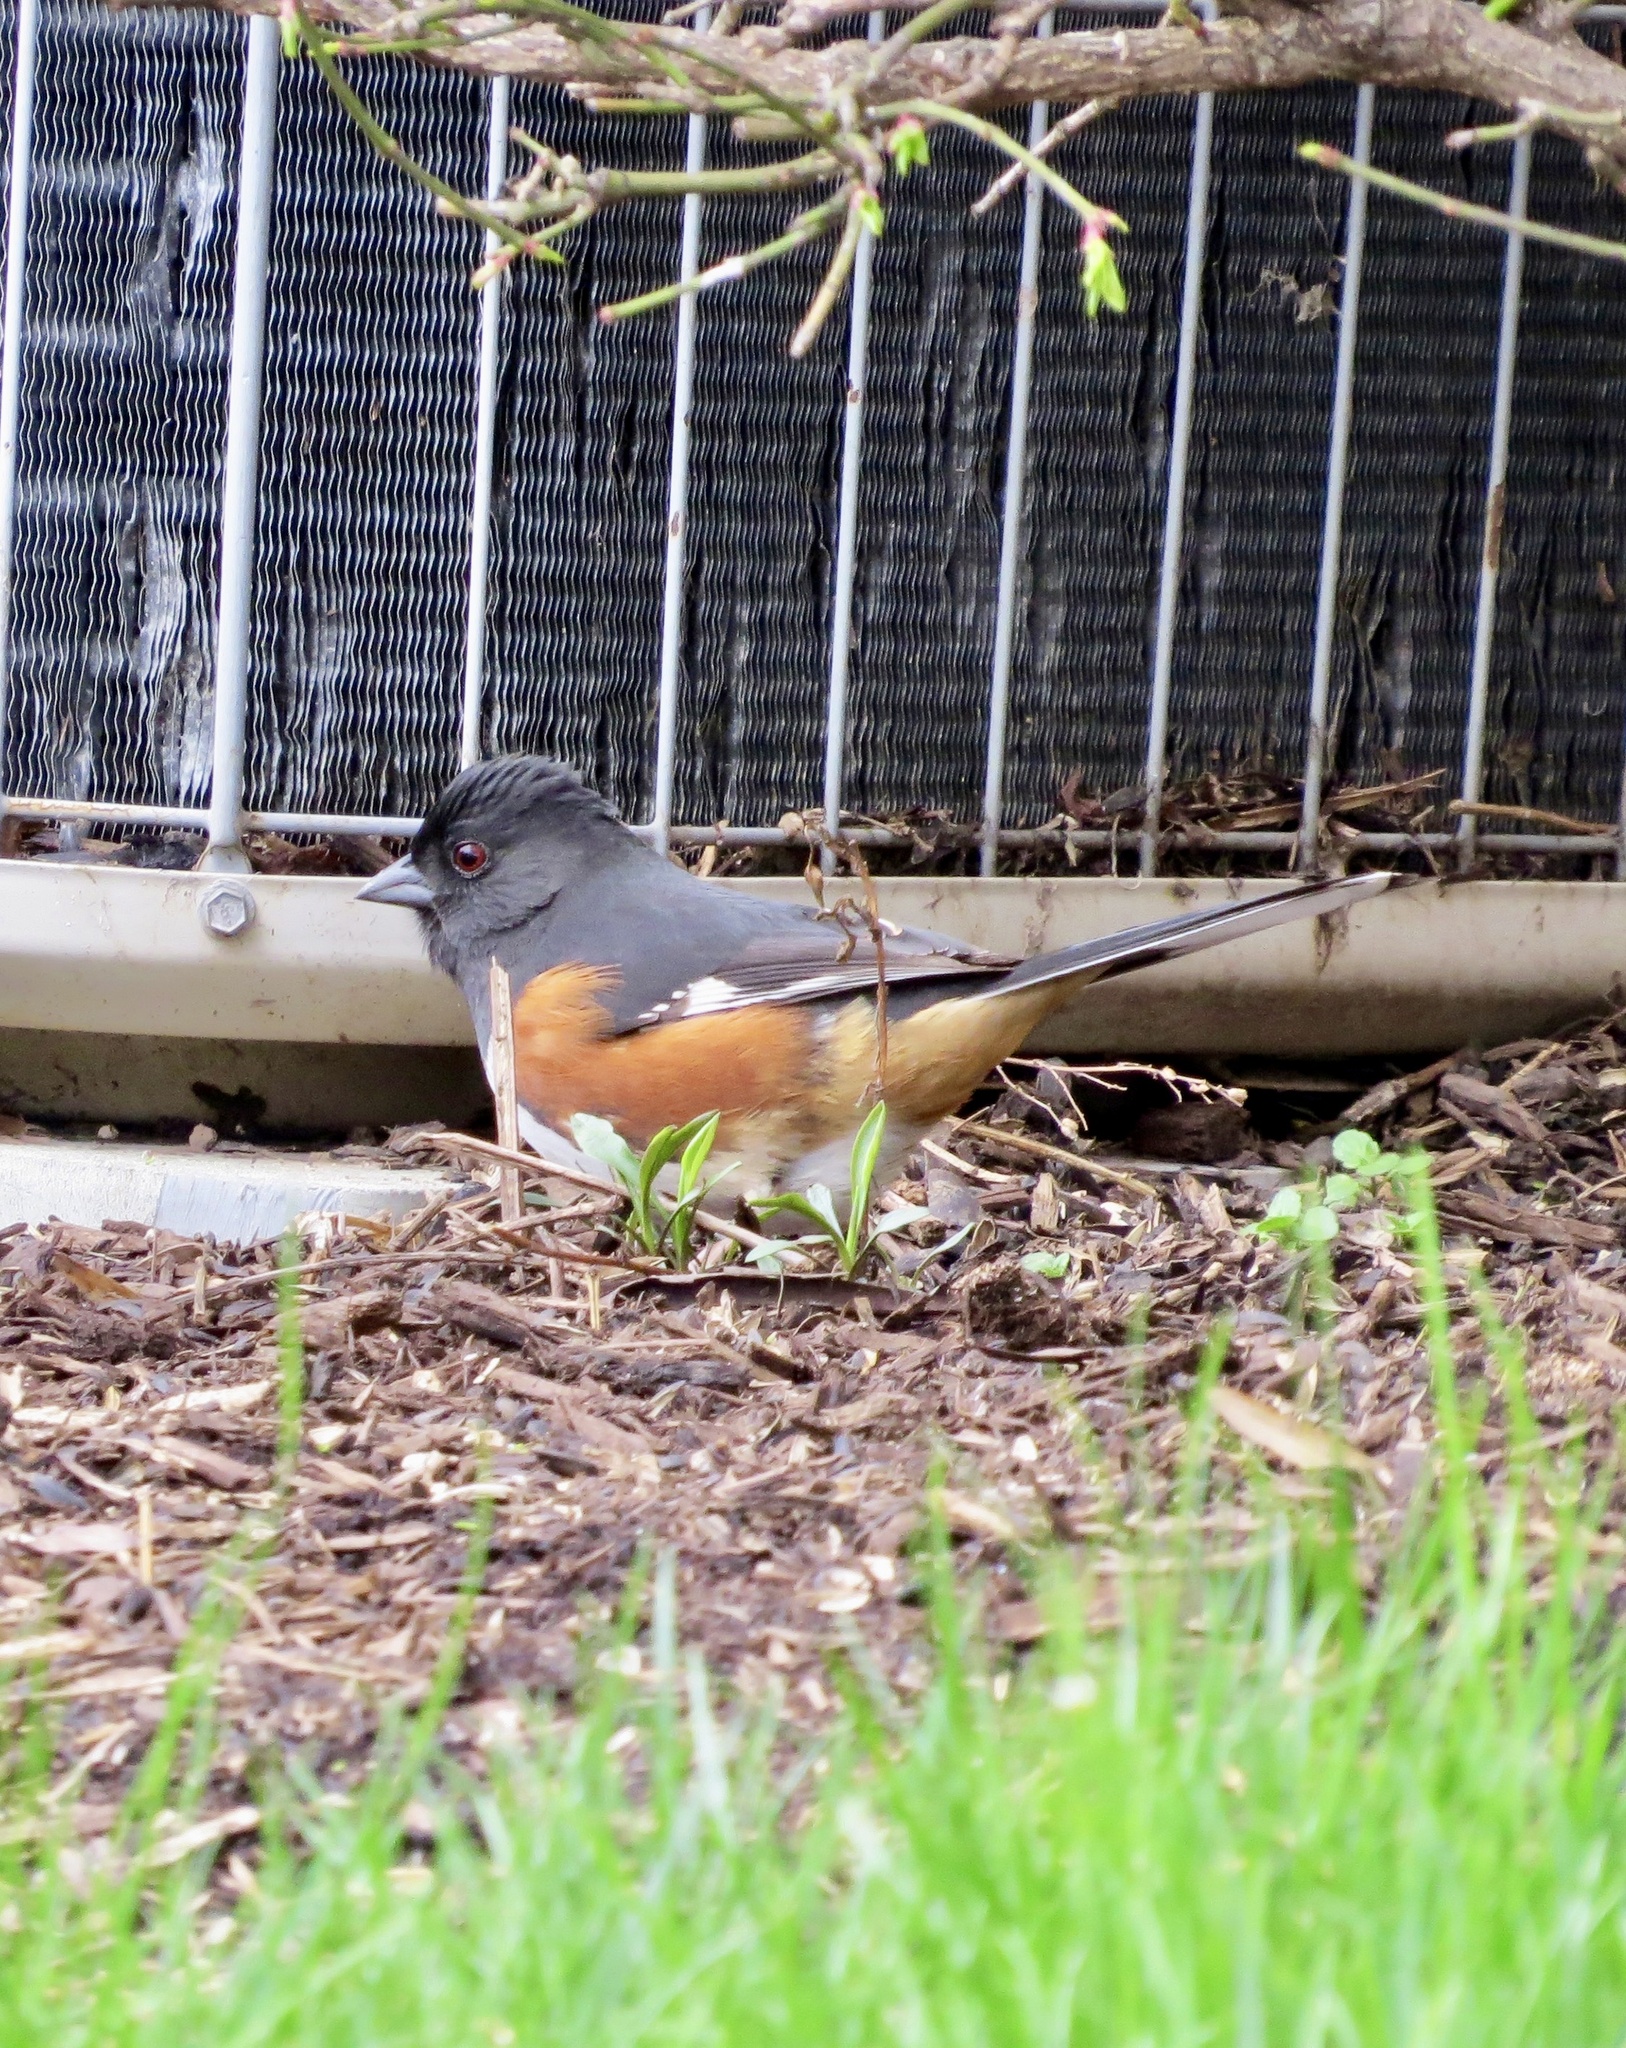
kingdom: Animalia
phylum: Chordata
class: Aves
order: Passeriformes
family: Passerellidae
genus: Pipilo
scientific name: Pipilo erythrophthalmus
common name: Eastern towhee
